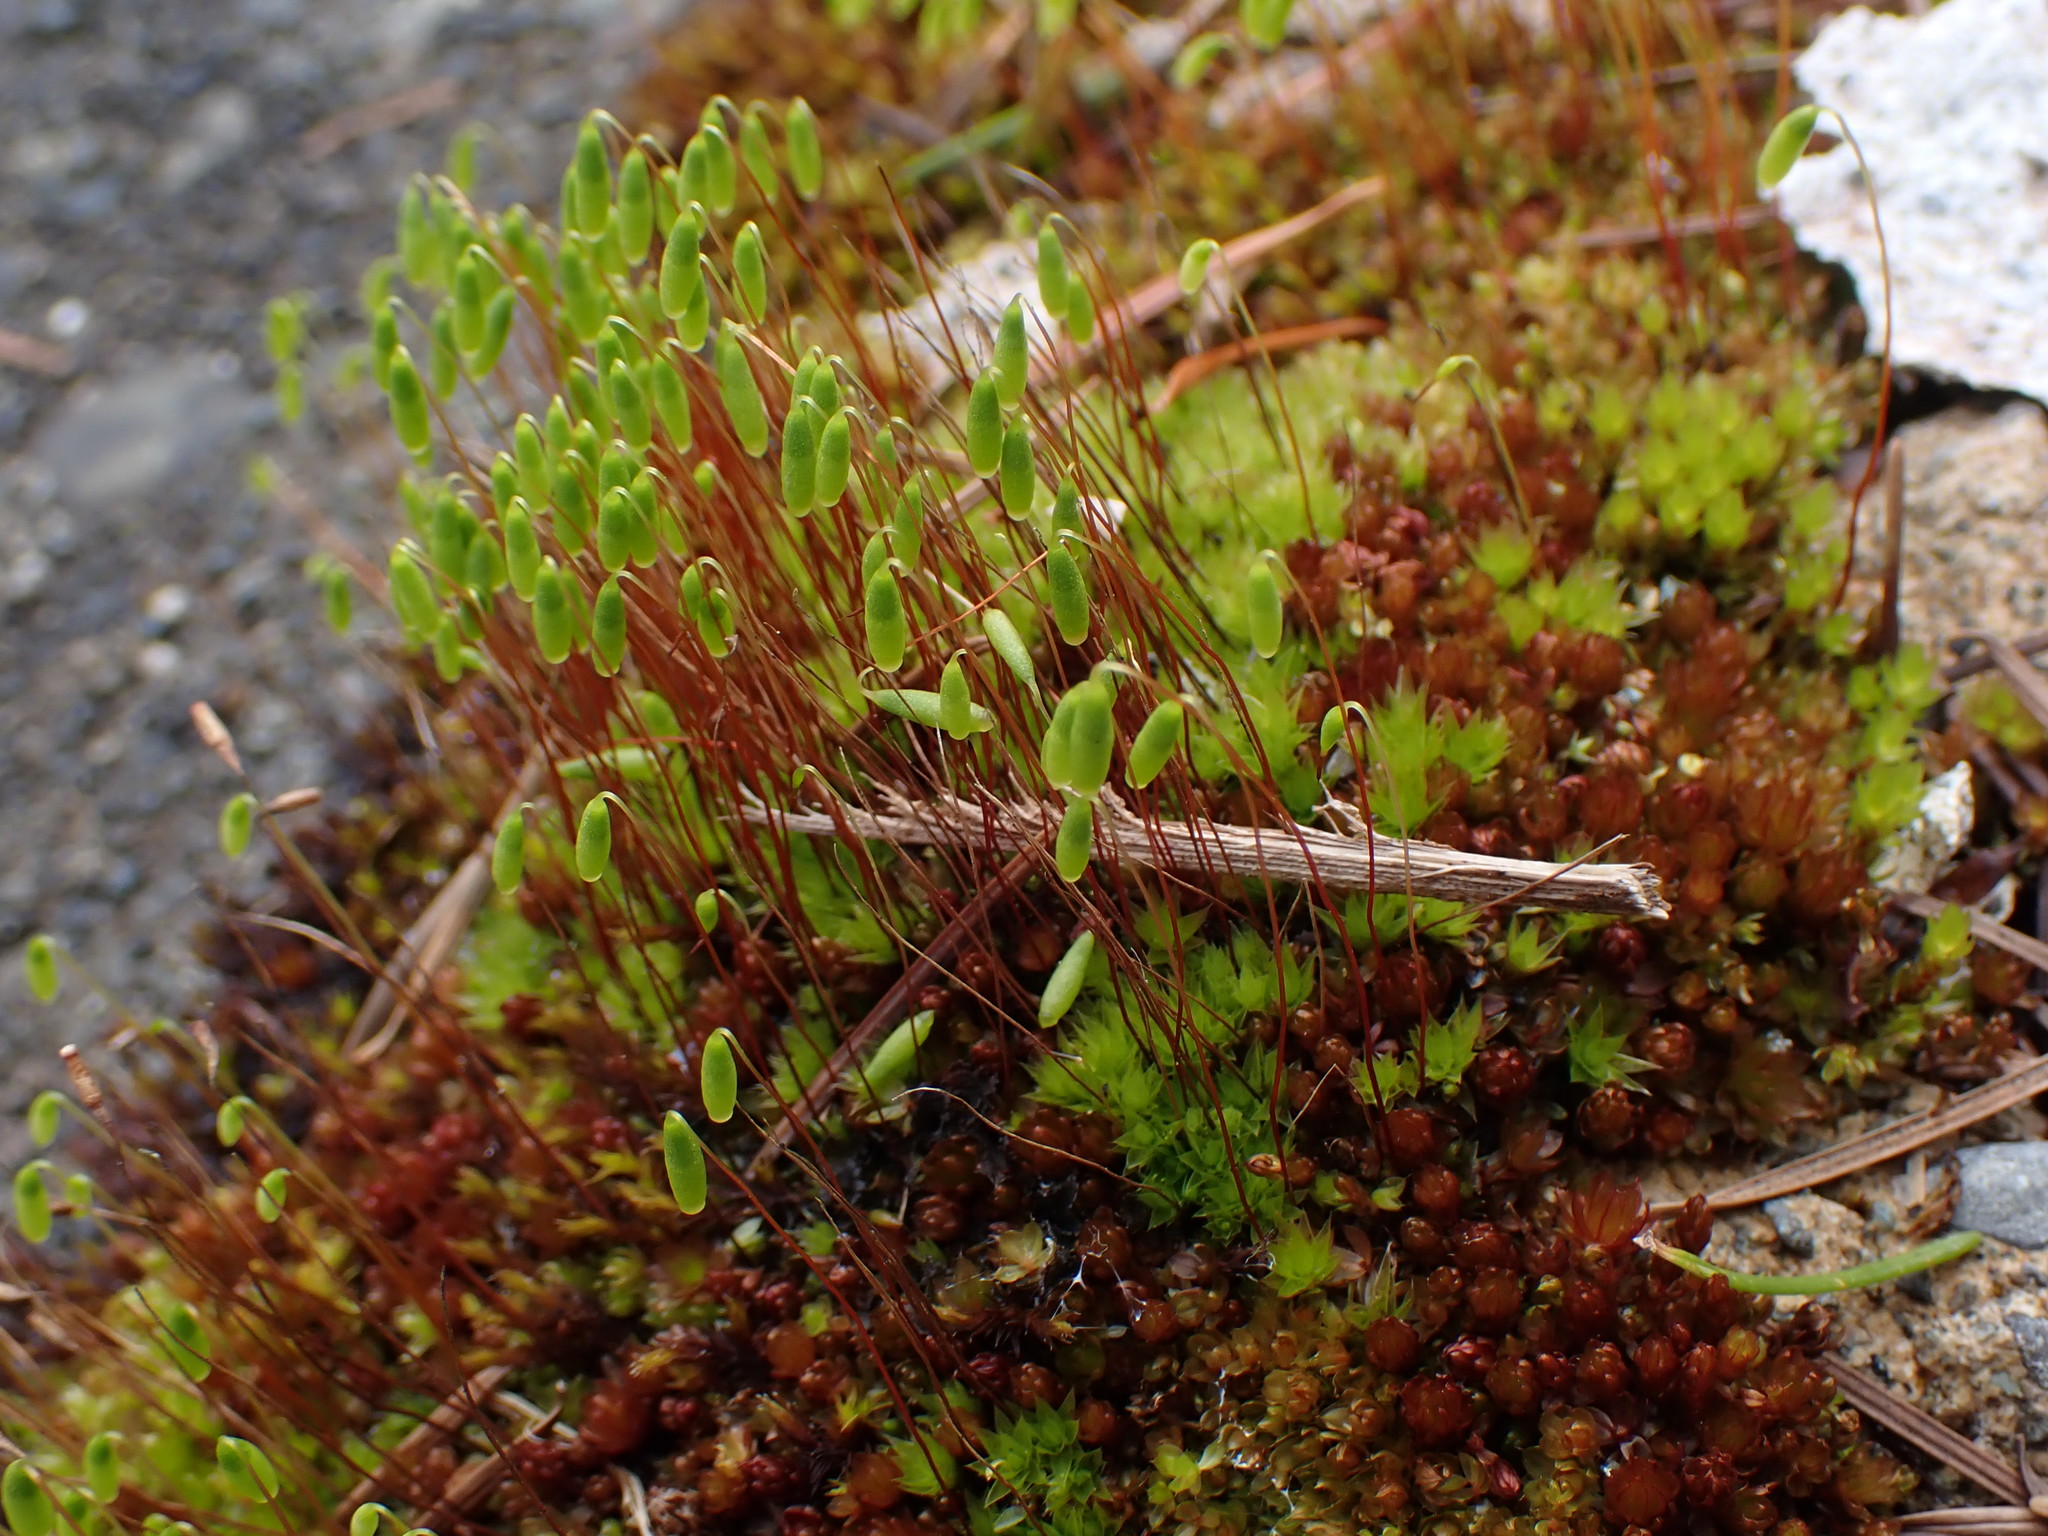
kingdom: Plantae
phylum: Bryophyta
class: Bryopsida
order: Bryales
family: Bryaceae
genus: Rosulabryum
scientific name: Rosulabryum capillare
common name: Capillary thread-moss
